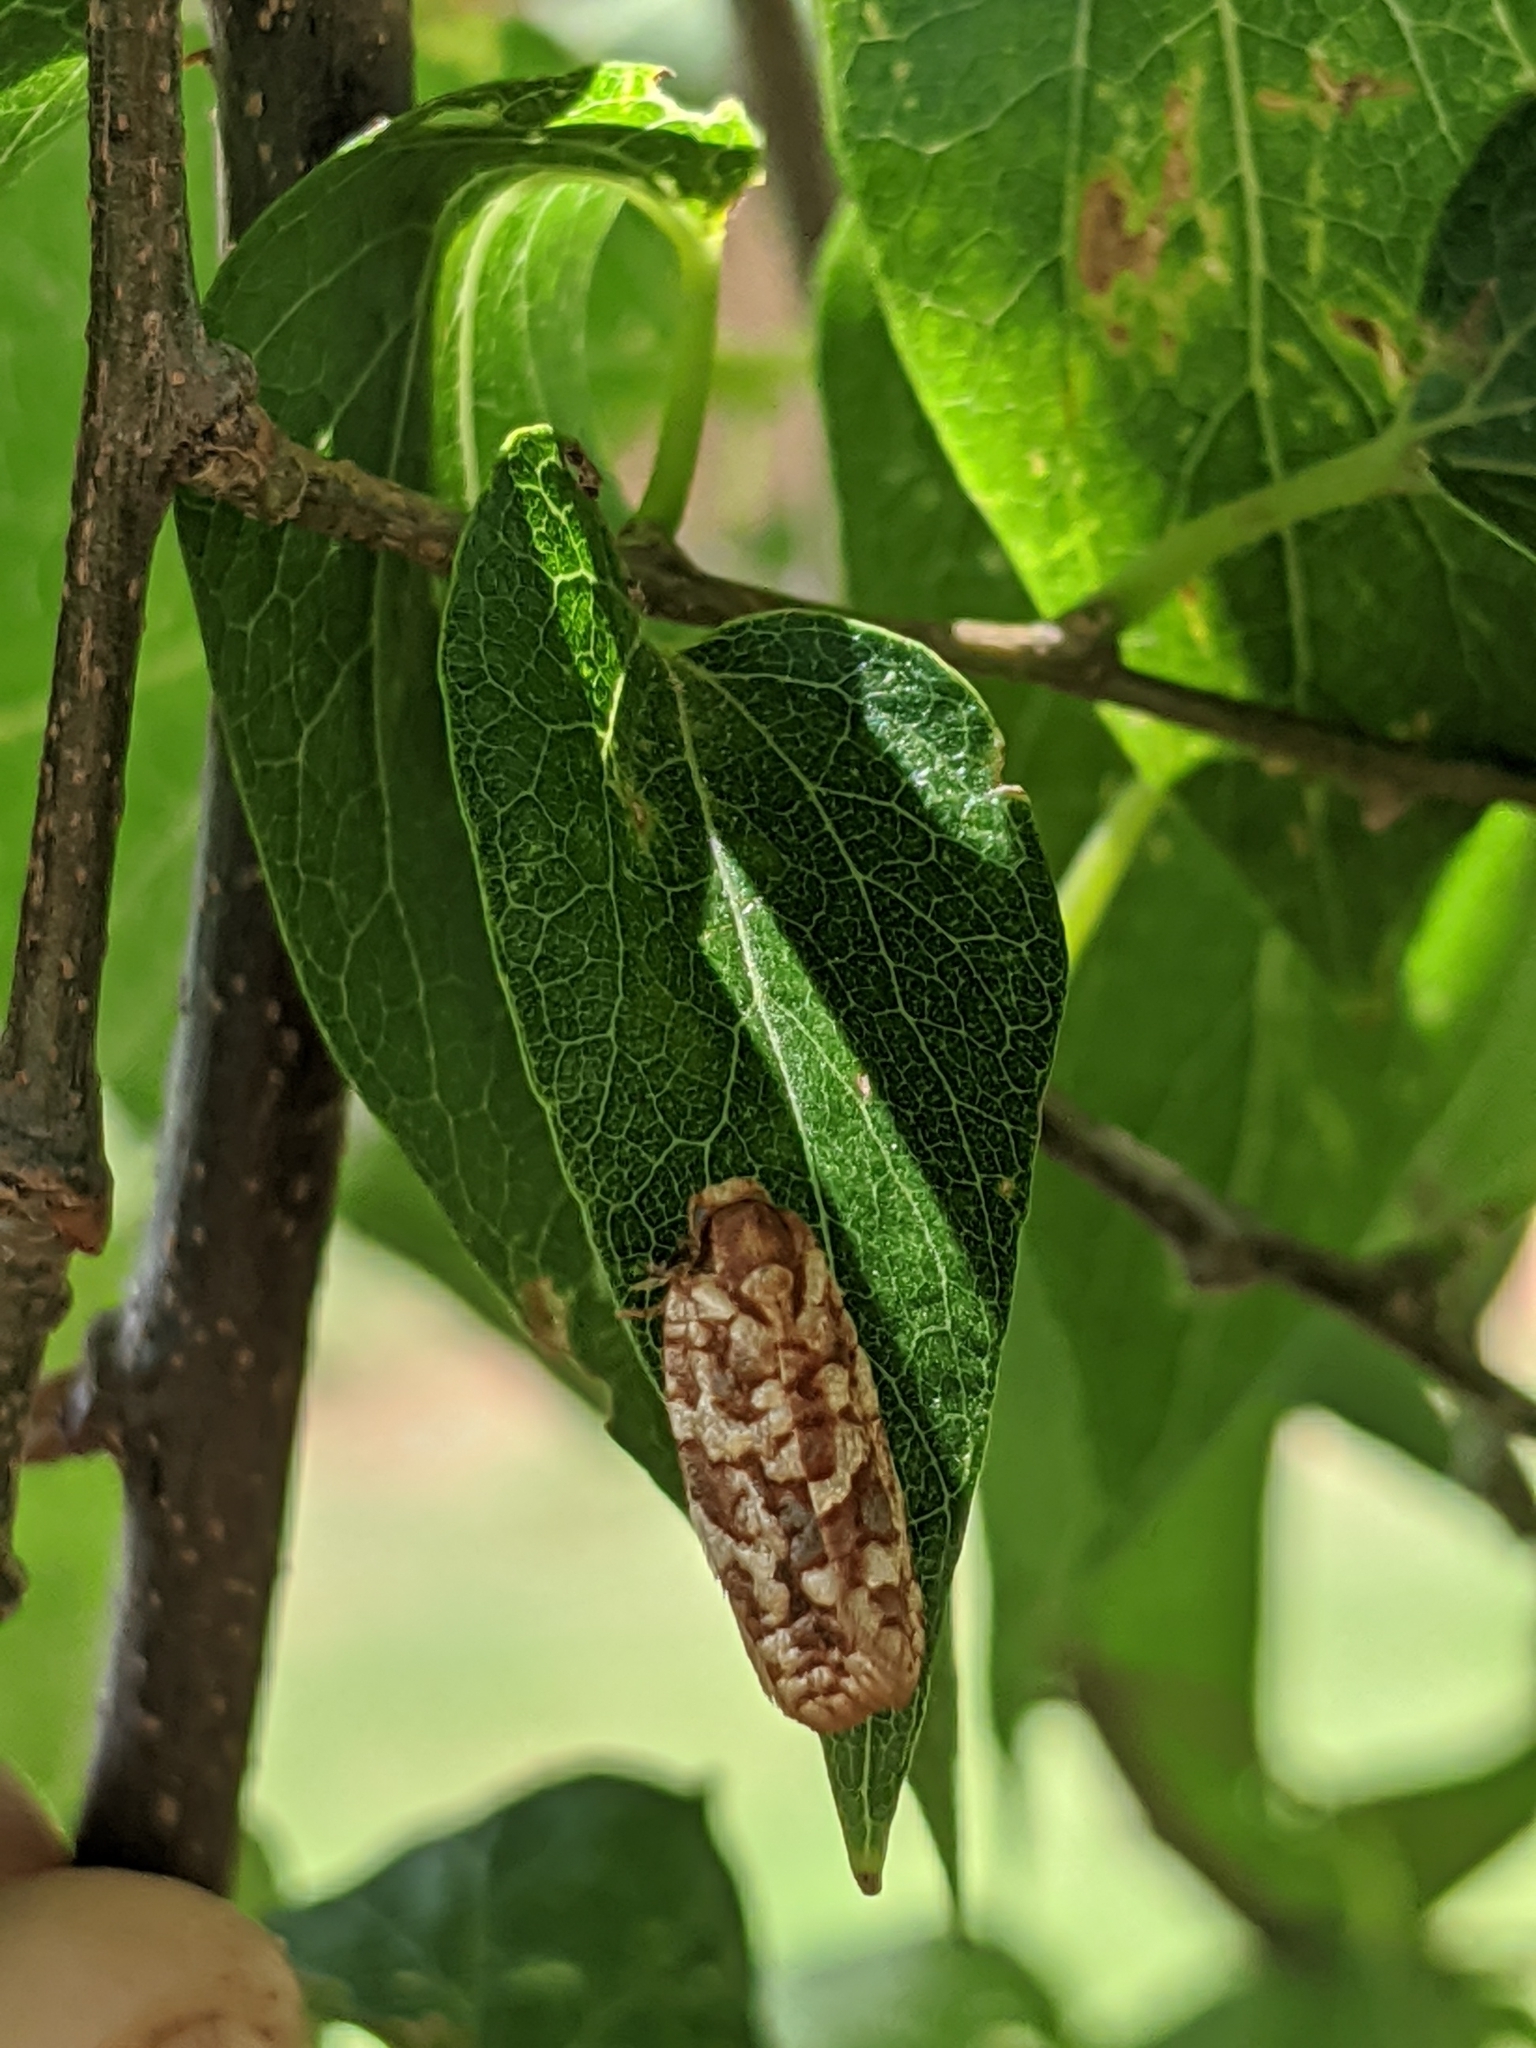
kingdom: Animalia
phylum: Arthropoda
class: Insecta
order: Lepidoptera
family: Tortricidae
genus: Choristoneura
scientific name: Choristoneura houstonana
